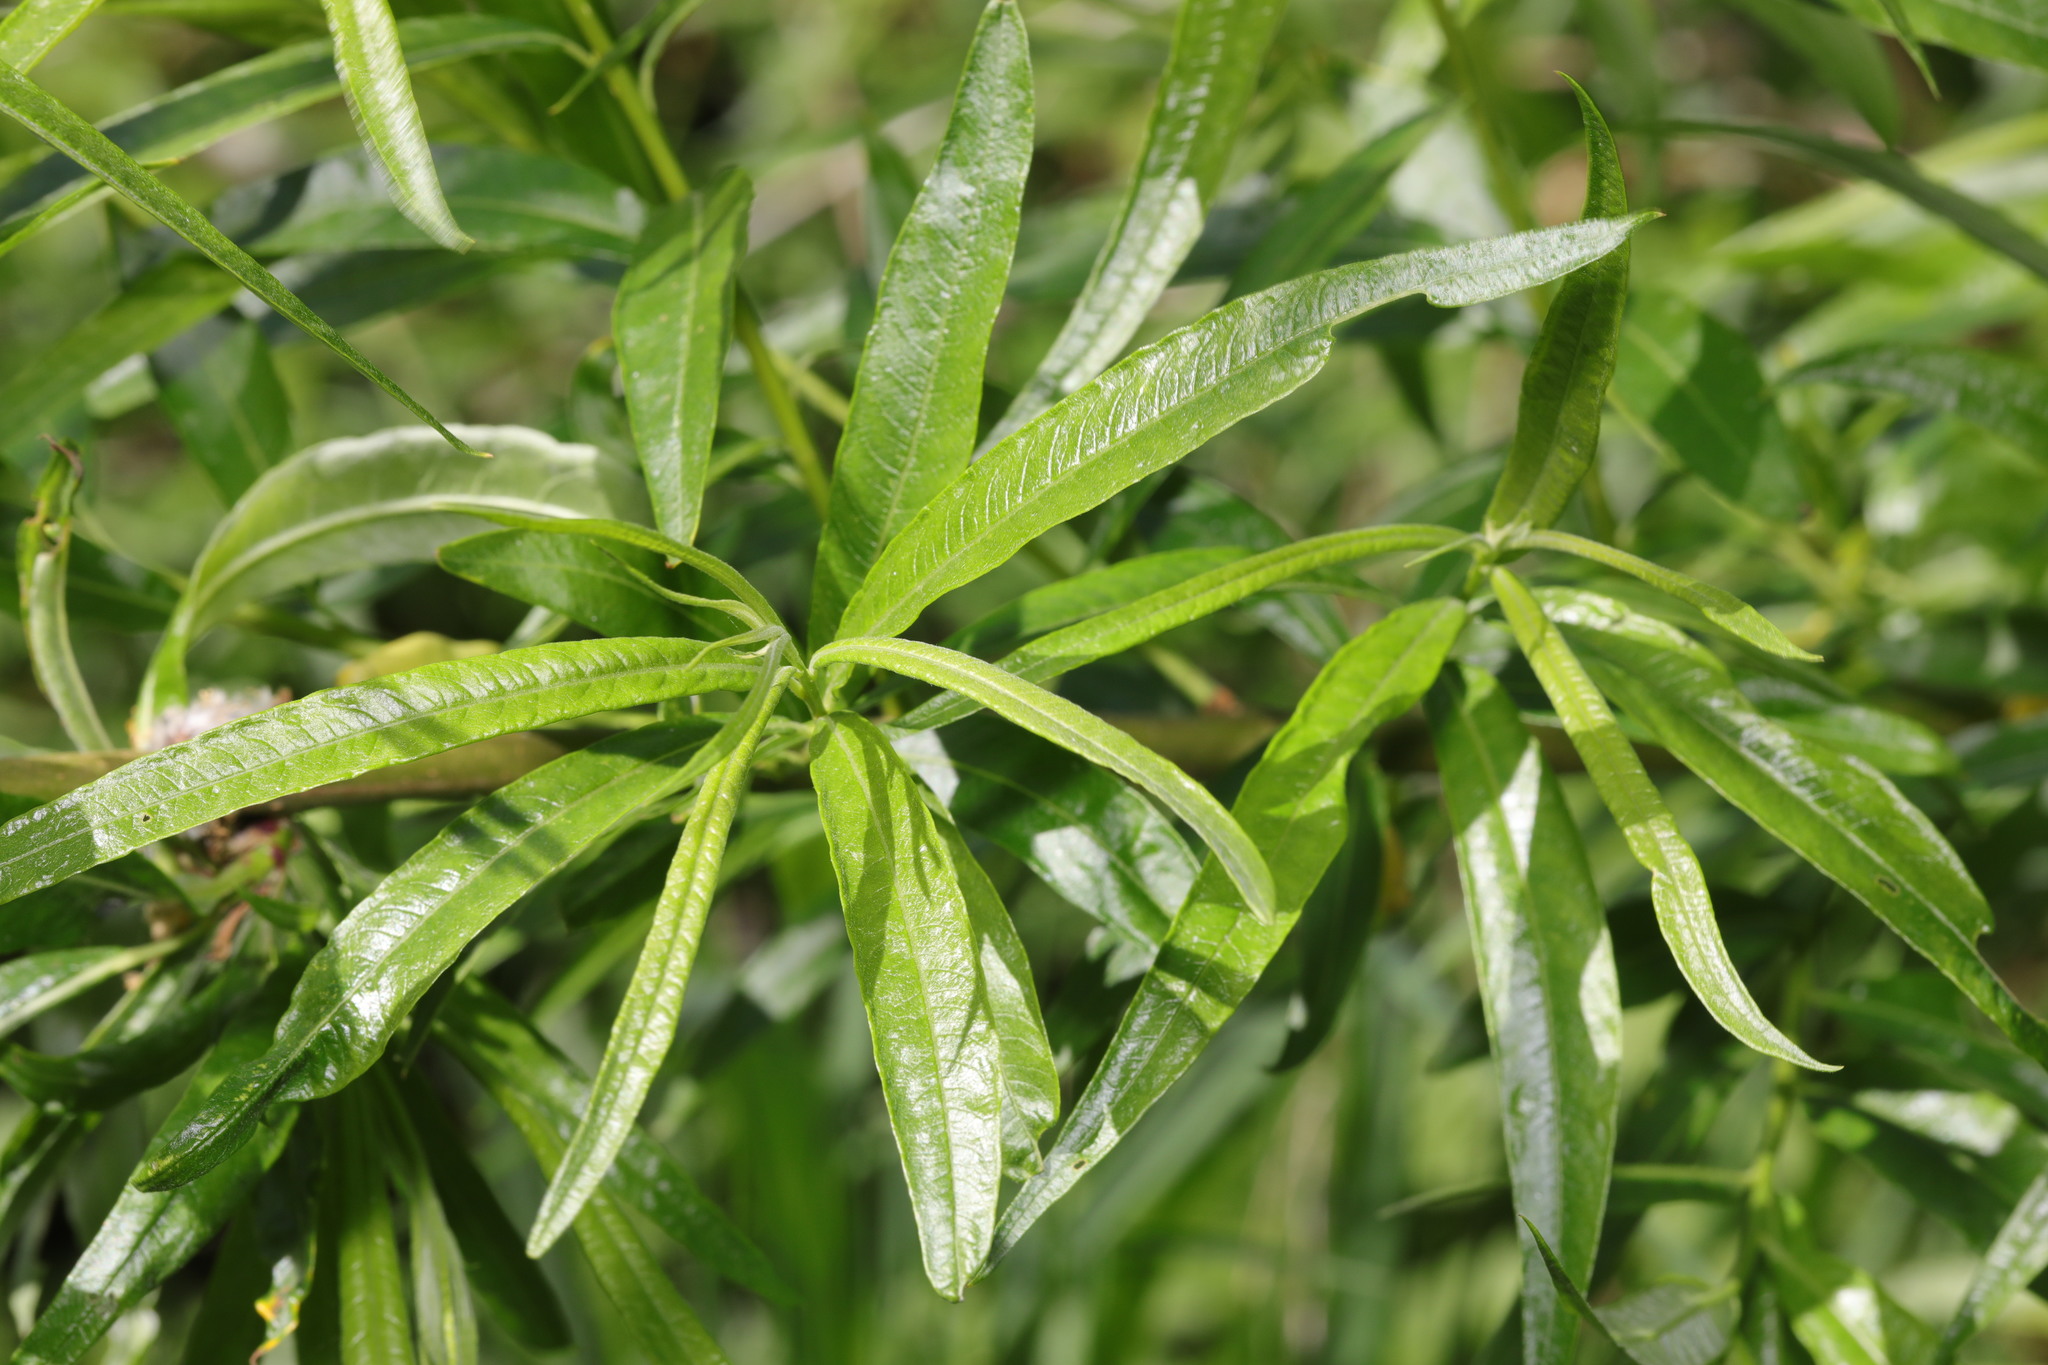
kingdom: Plantae
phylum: Tracheophyta
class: Magnoliopsida
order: Malpighiales
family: Salicaceae
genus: Salix
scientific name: Salix viminalis
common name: Osier
